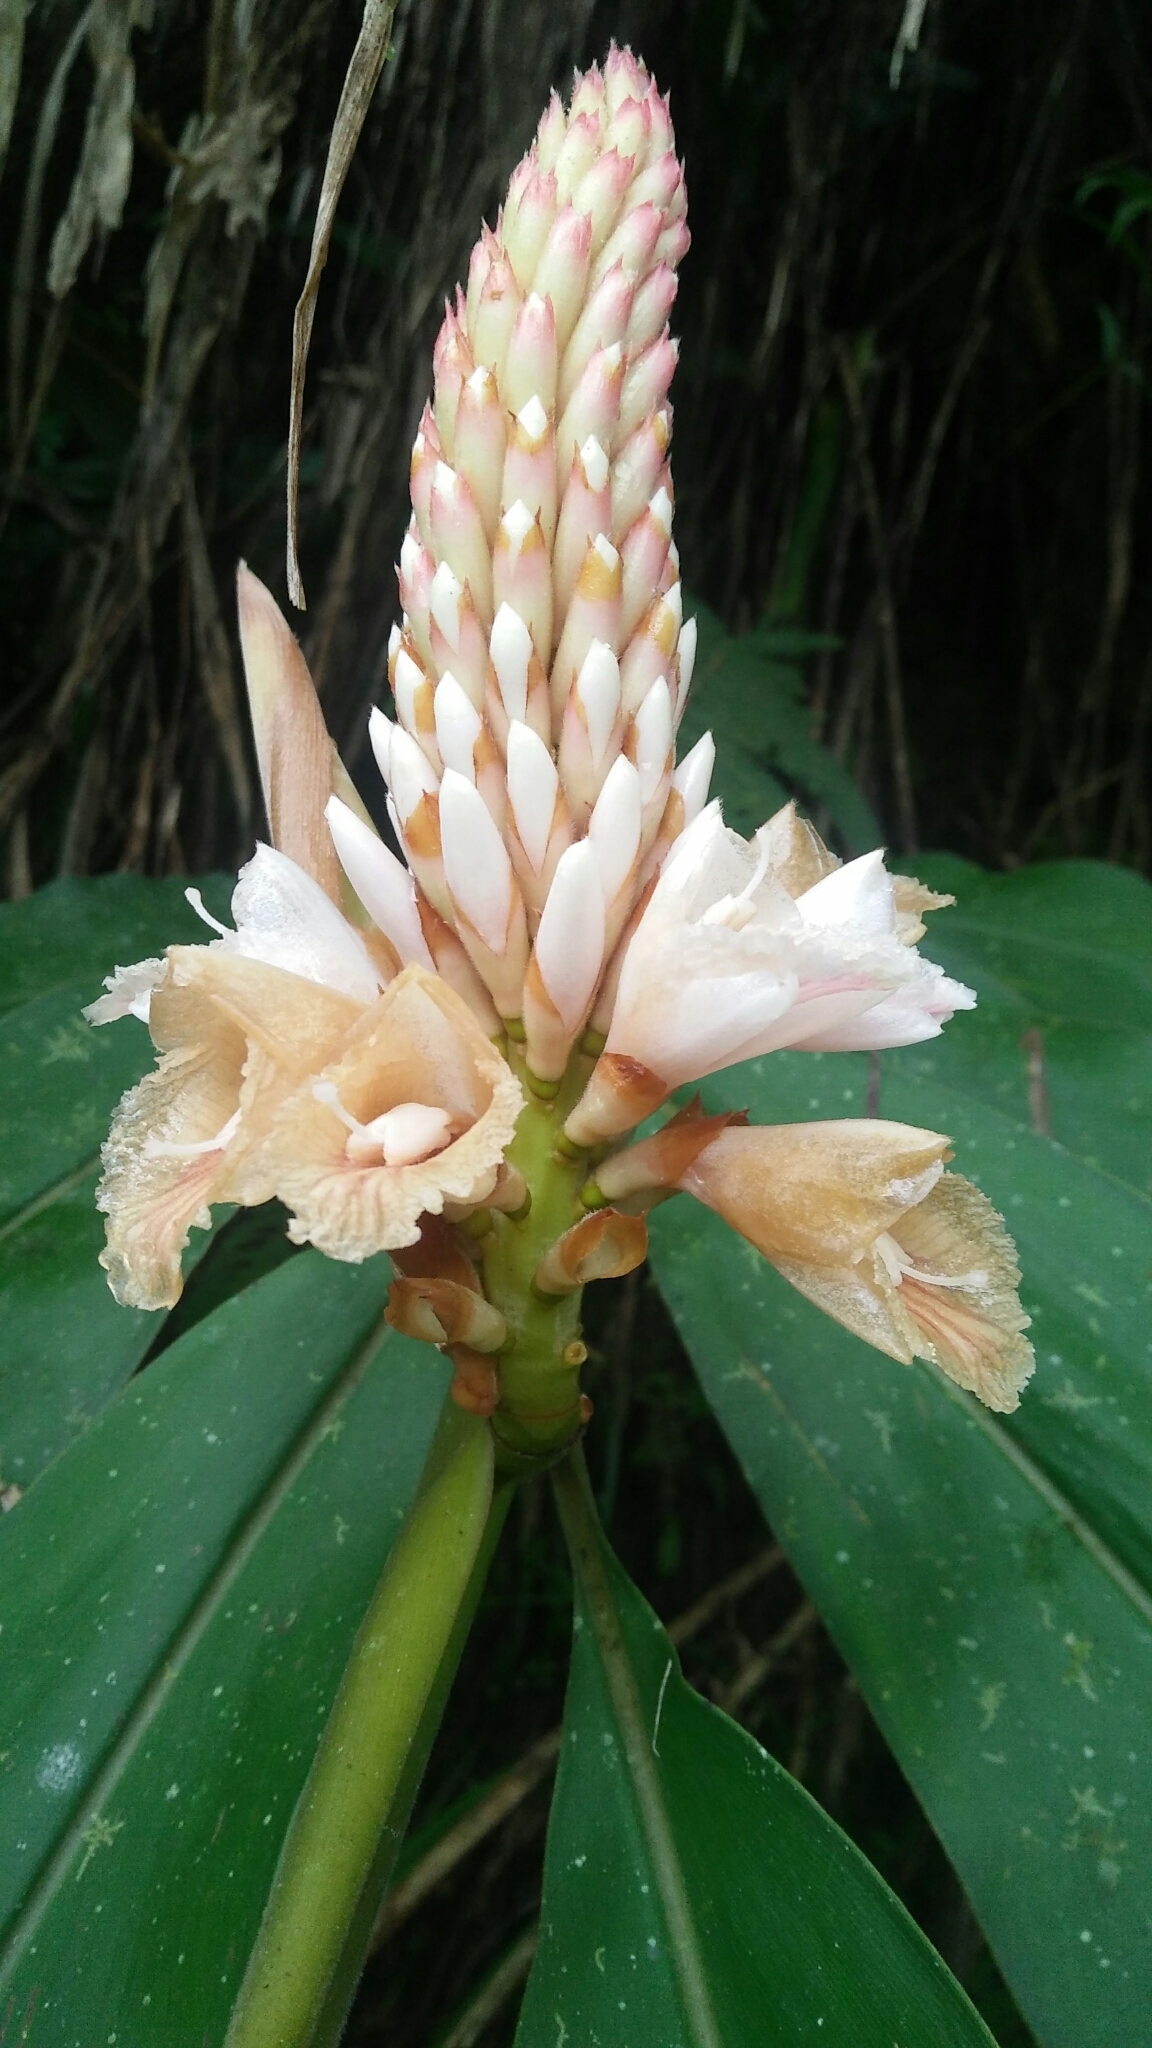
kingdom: Plantae
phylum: Tracheophyta
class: Liliopsida
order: Zingiberales
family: Zingiberaceae
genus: Alpinia
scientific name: Alpinia pricei
